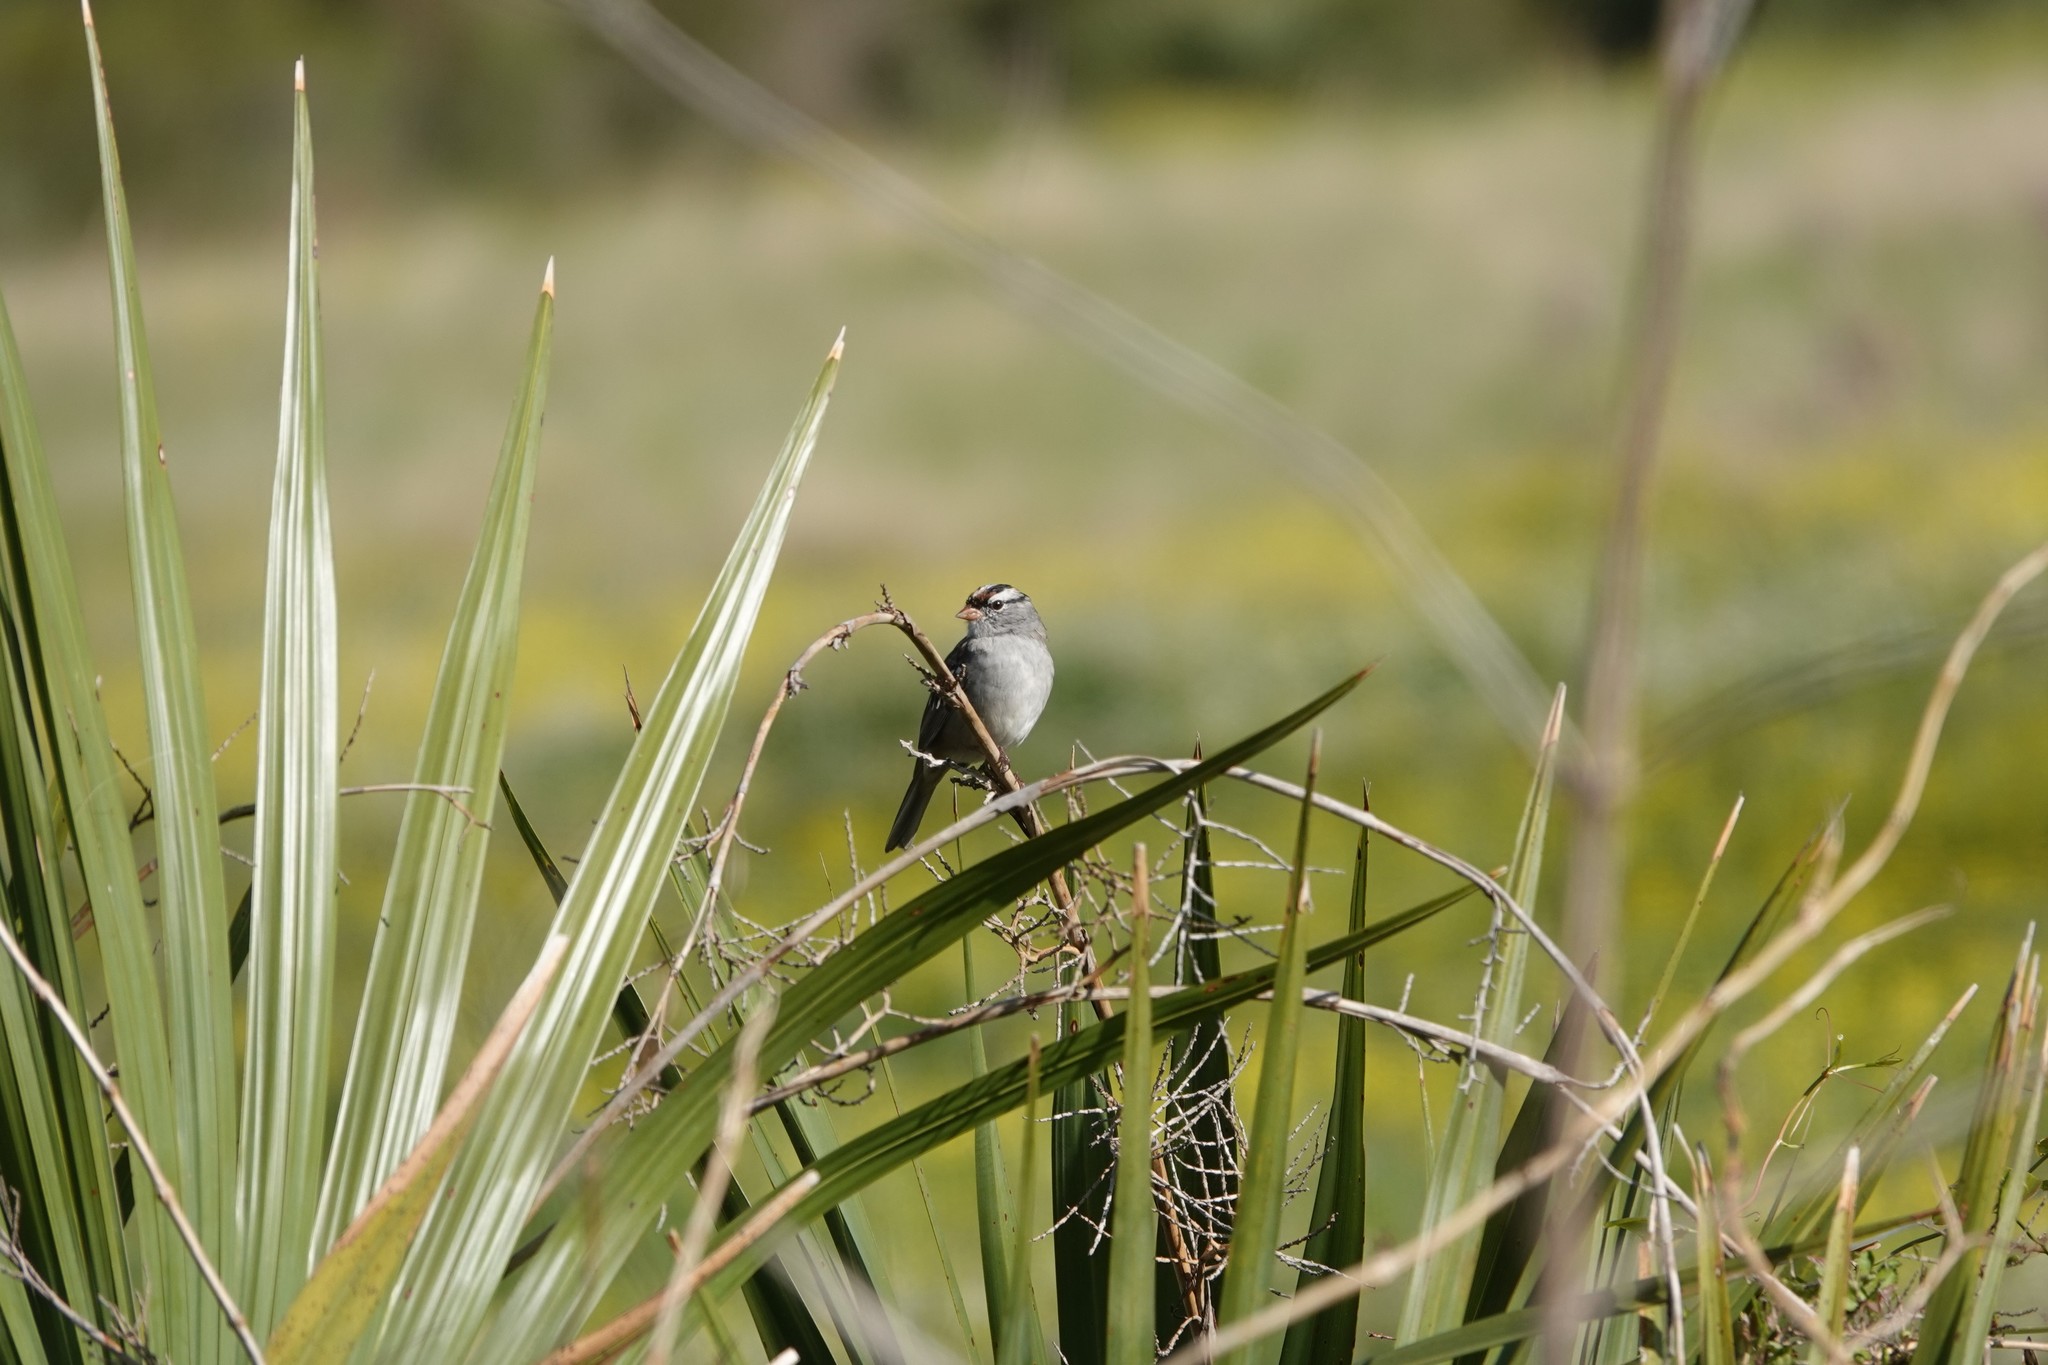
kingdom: Animalia
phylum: Chordata
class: Aves
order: Passeriformes
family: Passerellidae
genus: Zonotrichia
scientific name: Zonotrichia leucophrys
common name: White-crowned sparrow
